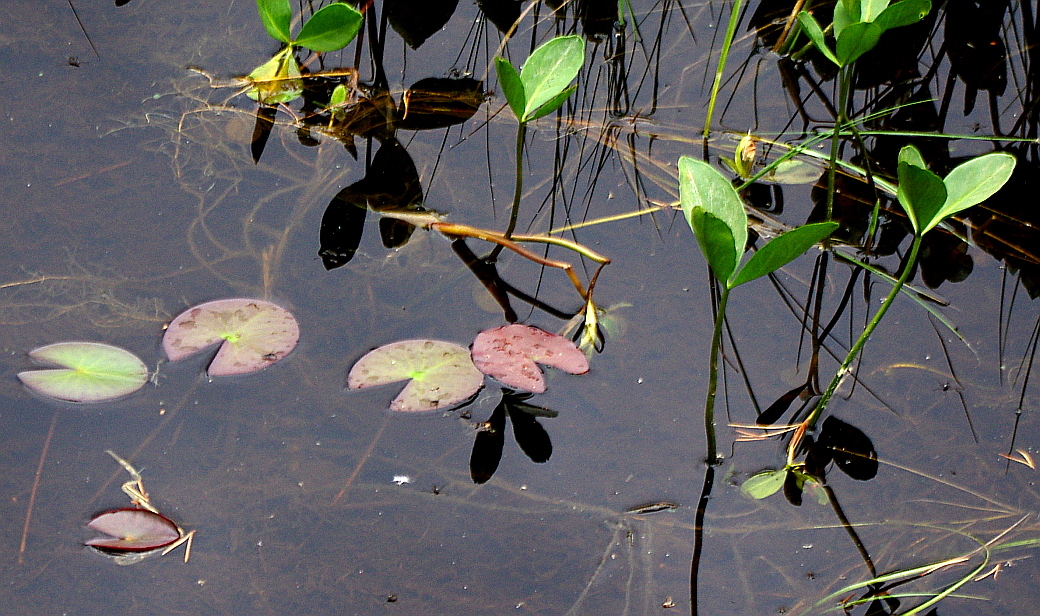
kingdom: Plantae
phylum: Tracheophyta
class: Magnoliopsida
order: Nymphaeales
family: Nymphaeaceae
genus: Nymphaea
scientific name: Nymphaea tetragona
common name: Pygmy water-lily
